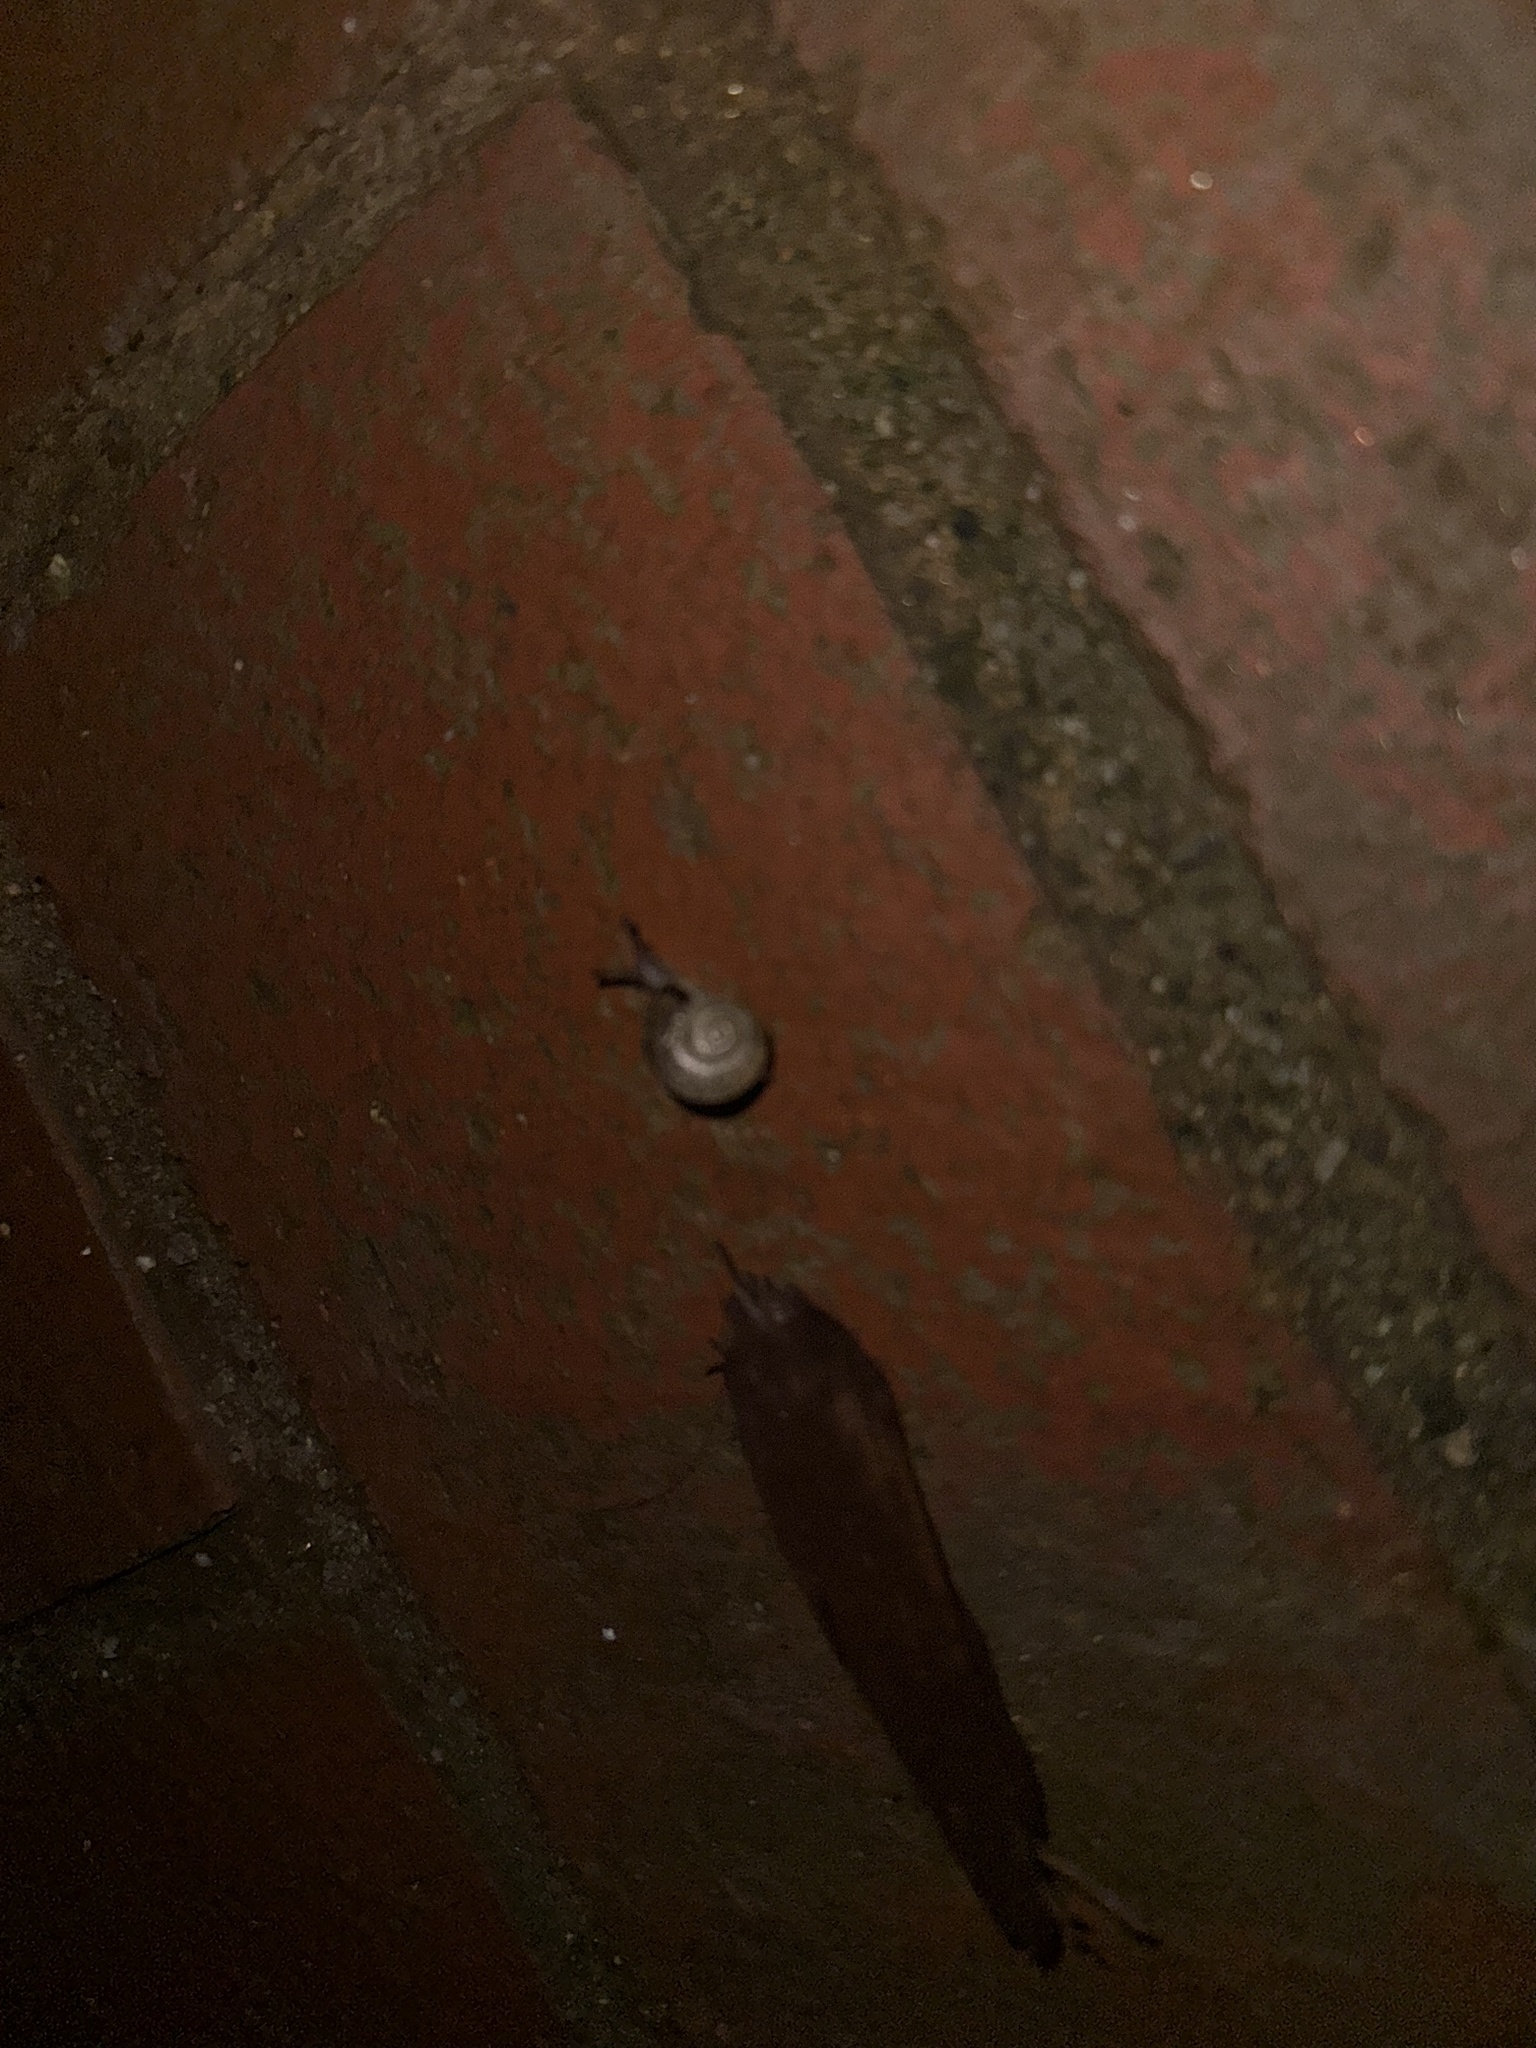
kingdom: Animalia
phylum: Mollusca
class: Gastropoda
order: Stylommatophora
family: Polygyridae
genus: Polygyra
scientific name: Polygyra cereolus
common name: Southern flatcone snail
